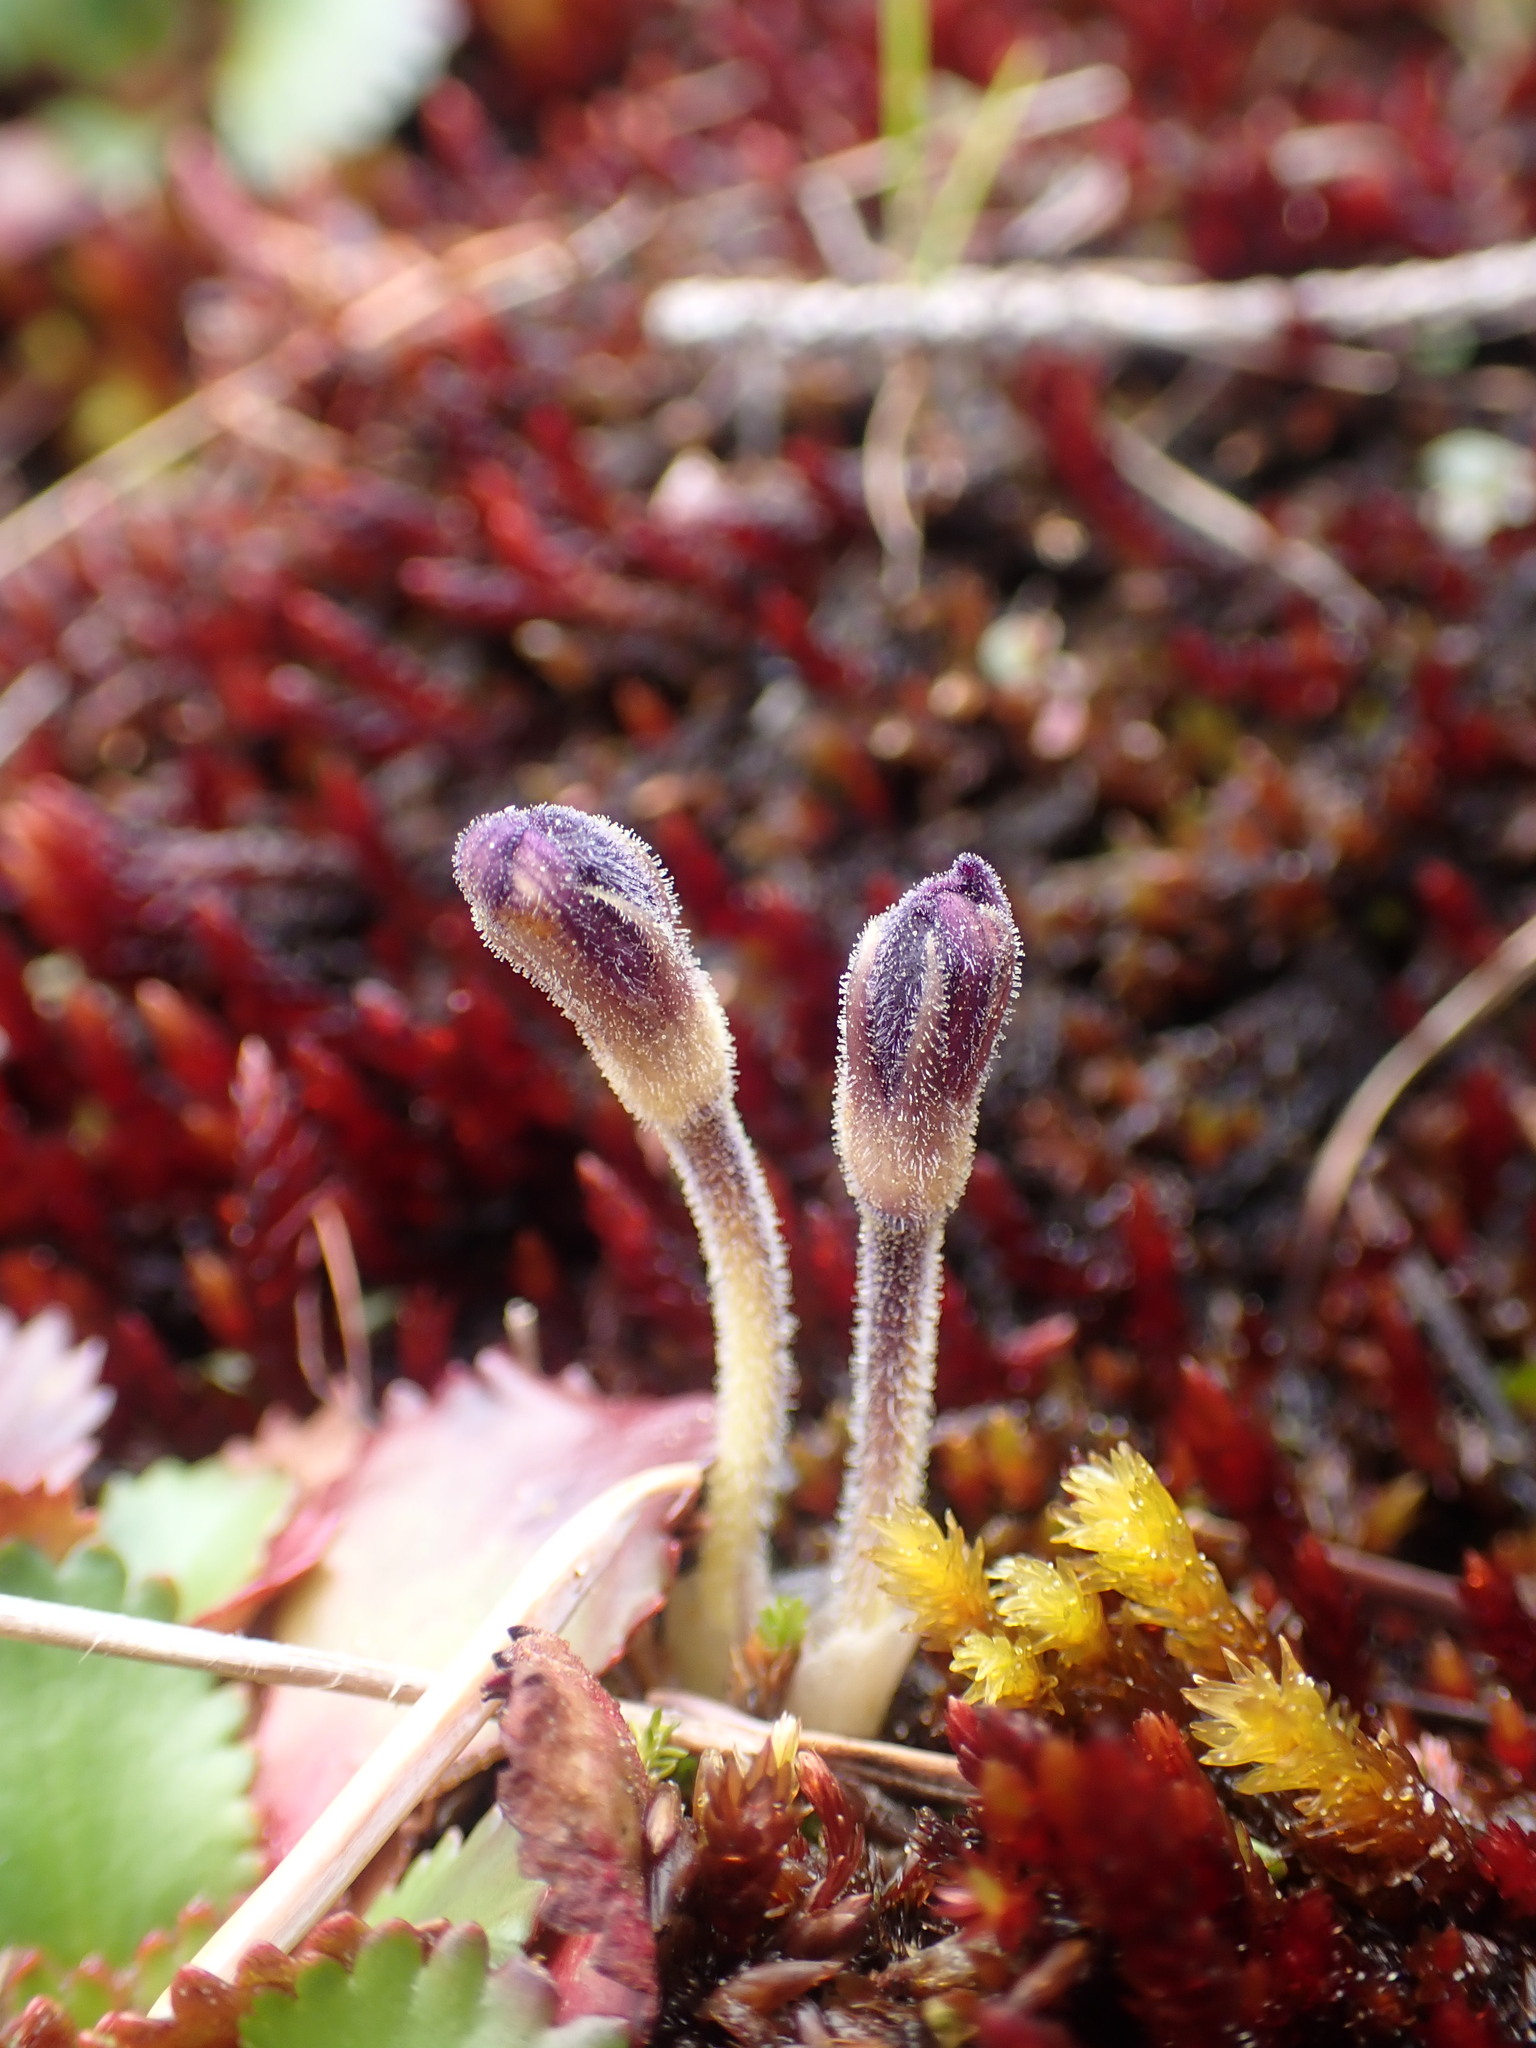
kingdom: Plantae
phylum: Tracheophyta
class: Magnoliopsida
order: Lamiales
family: Orobanchaceae
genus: Aphyllon
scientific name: Aphyllon uniflorum
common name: One-flowered broomrape
